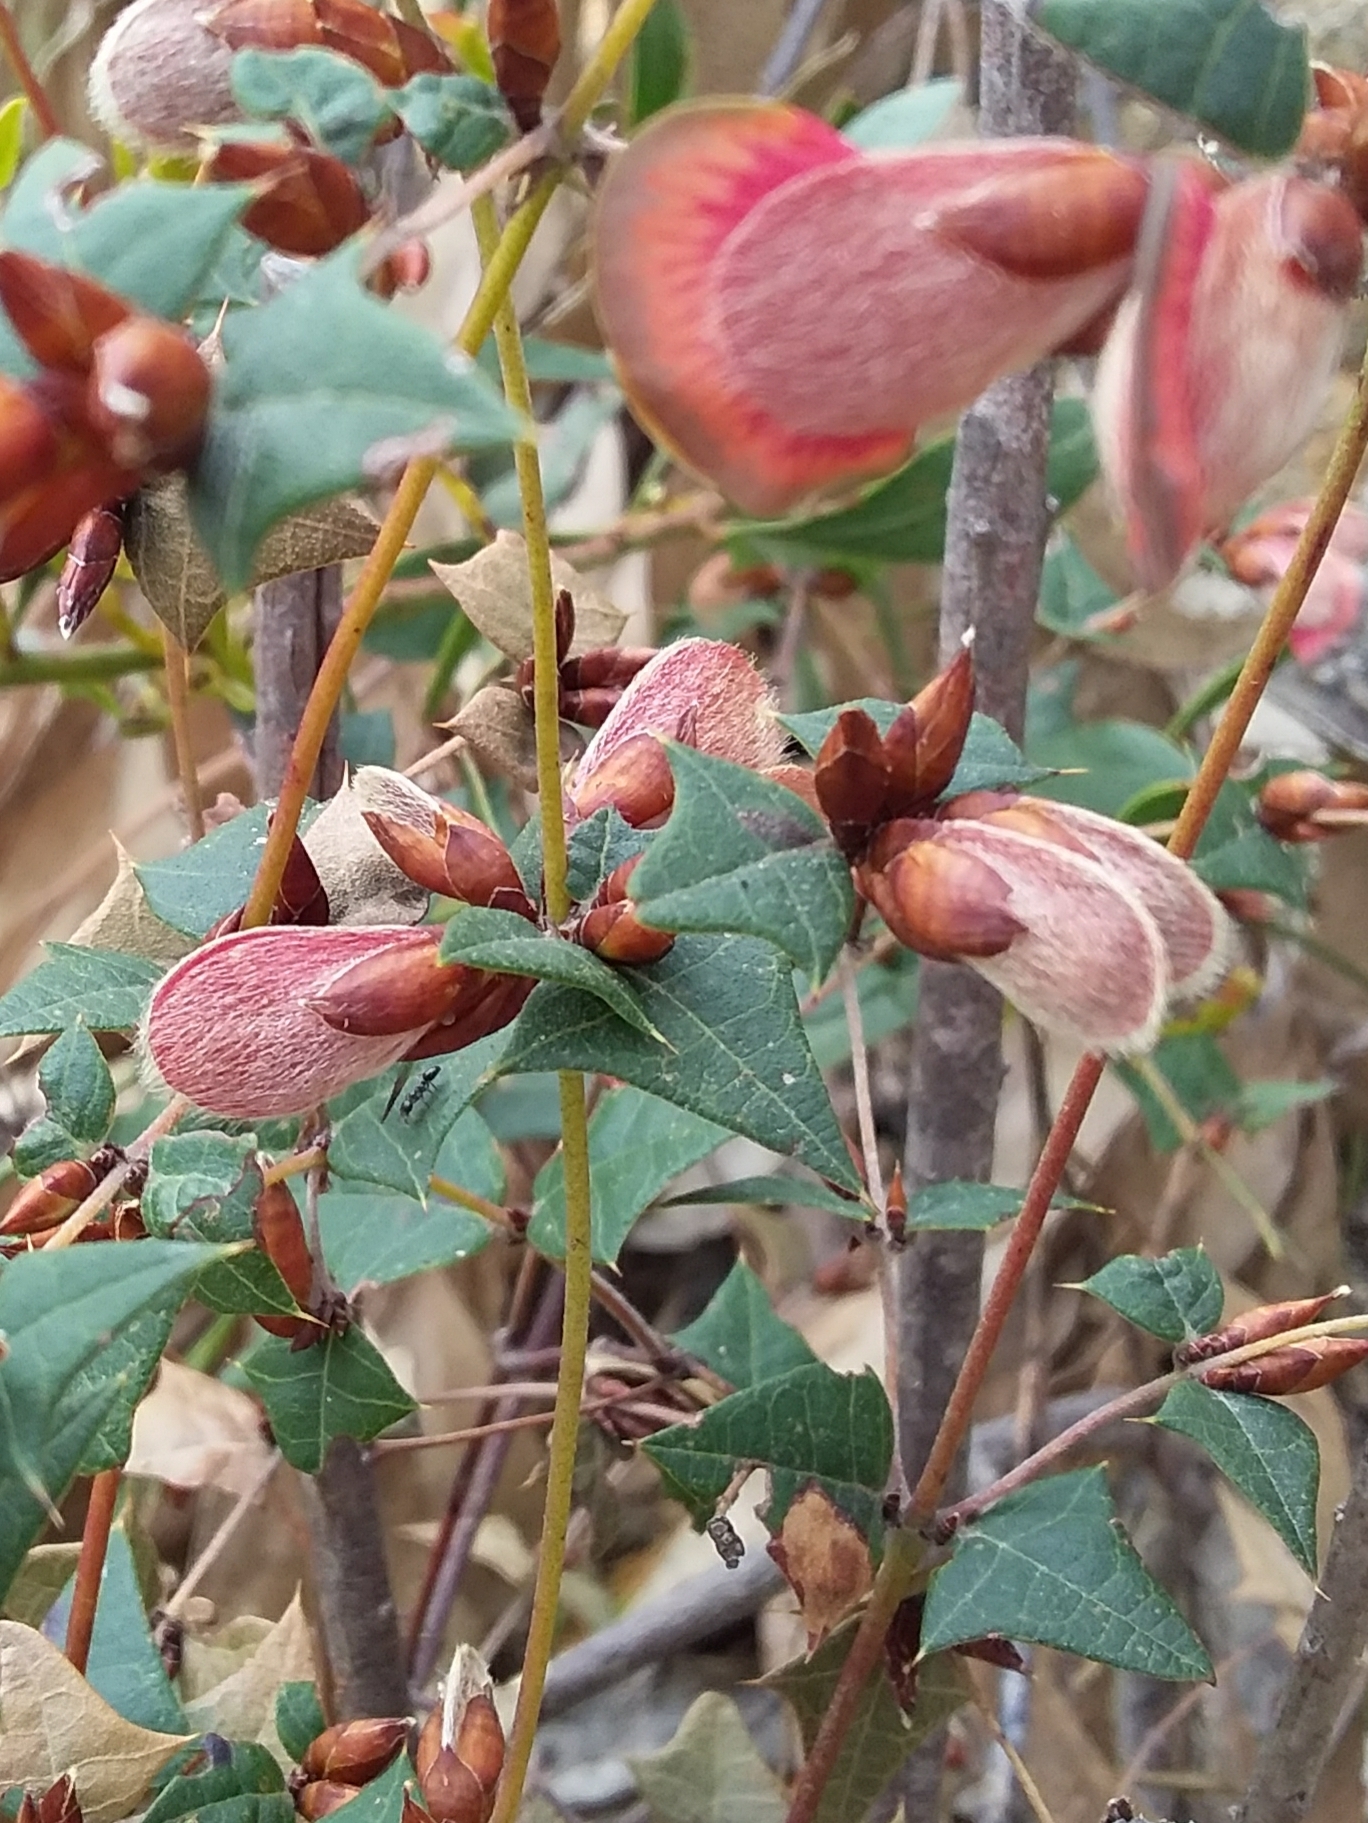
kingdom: Plantae
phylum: Tracheophyta
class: Magnoliopsida
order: Fabales
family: Fabaceae
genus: Platylobium
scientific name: Platylobium obtusangulum
